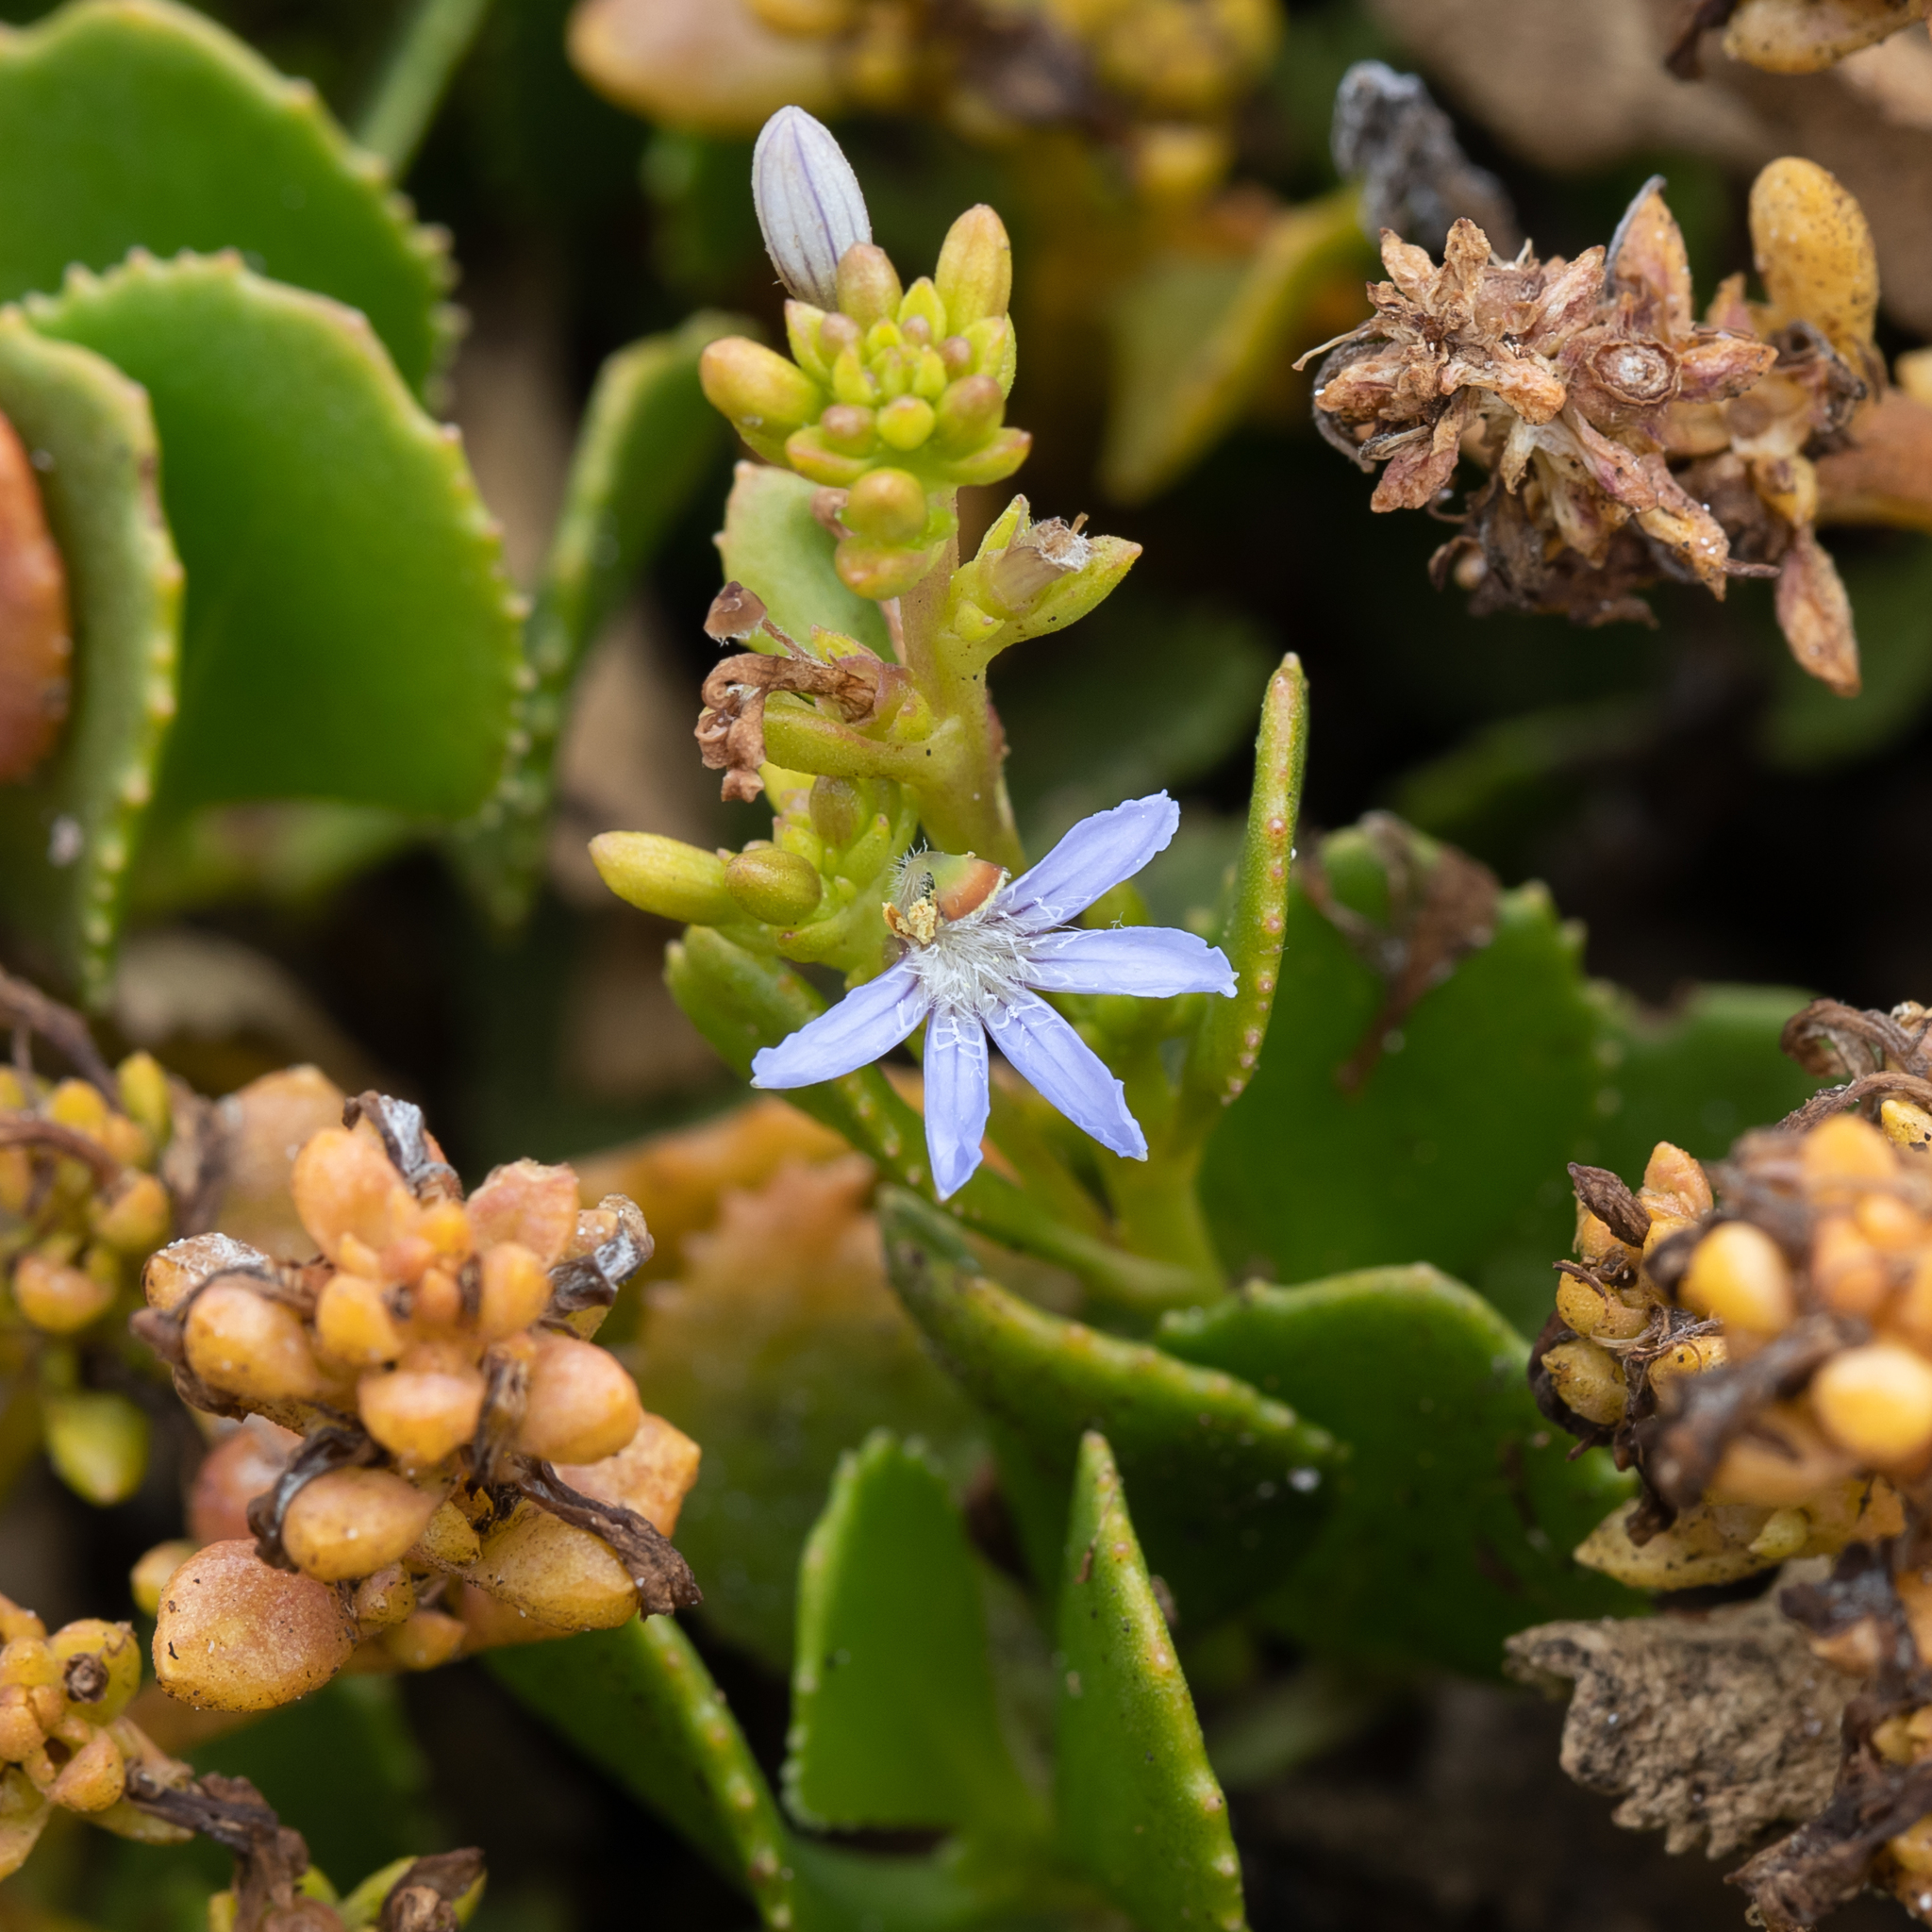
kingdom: Plantae
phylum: Tracheophyta
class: Magnoliopsida
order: Asterales
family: Goodeniaceae
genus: Scaevola
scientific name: Scaevola crassifolia
